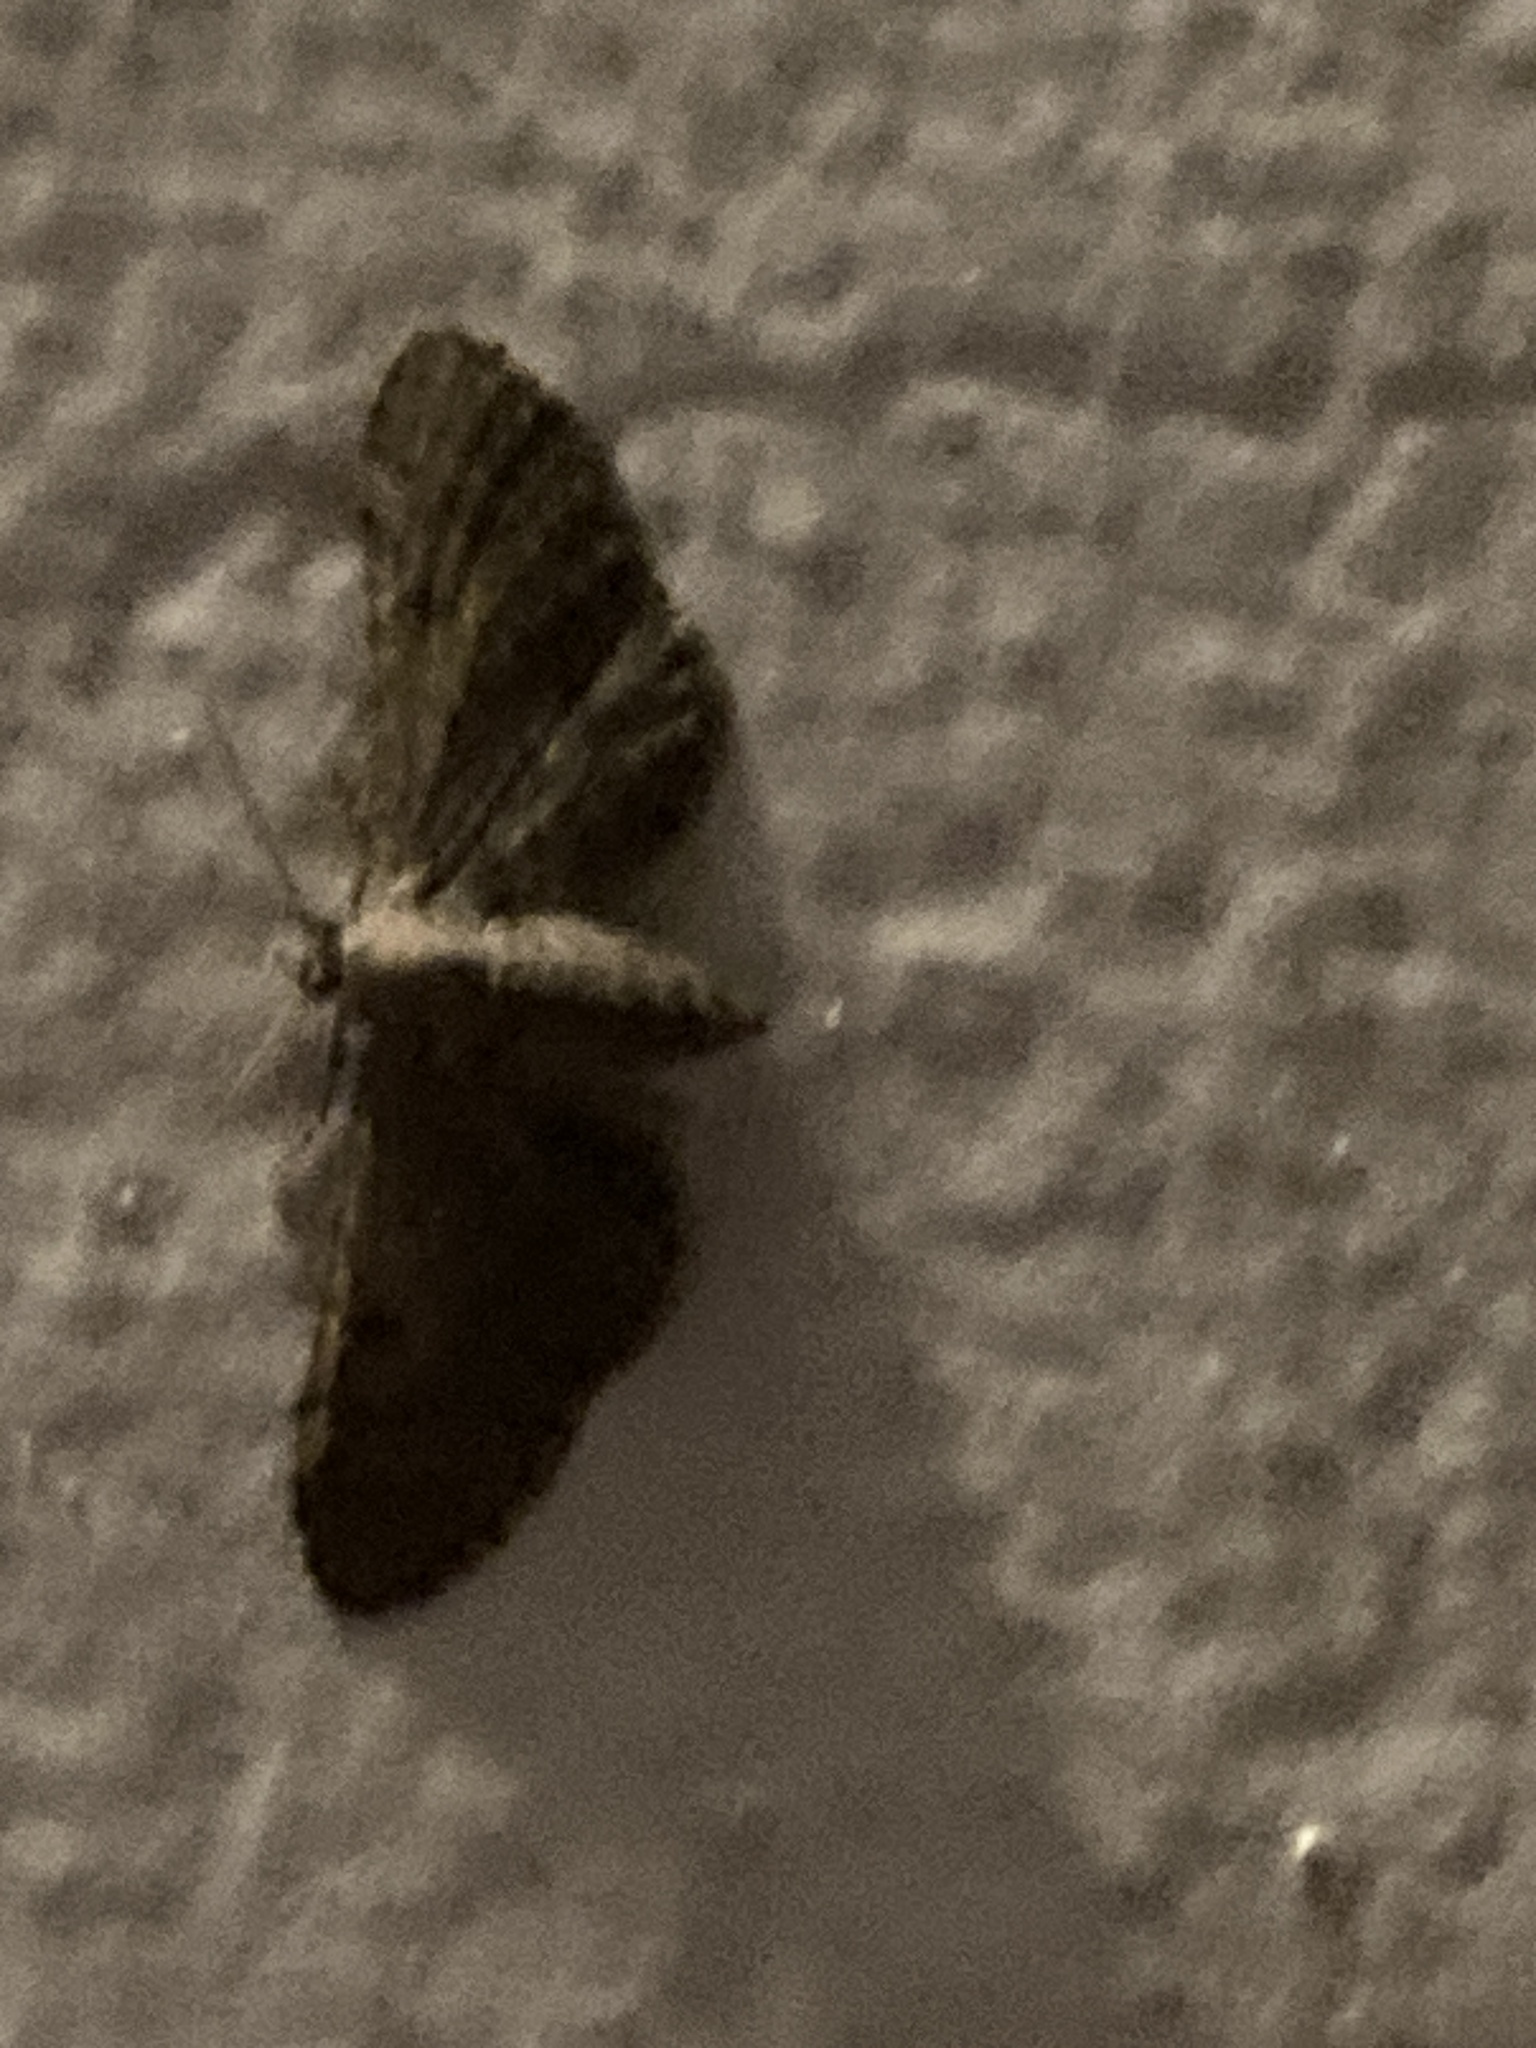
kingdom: Animalia
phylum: Arthropoda
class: Insecta
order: Lepidoptera
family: Geometridae
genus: Eupithecia
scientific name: Eupithecia
